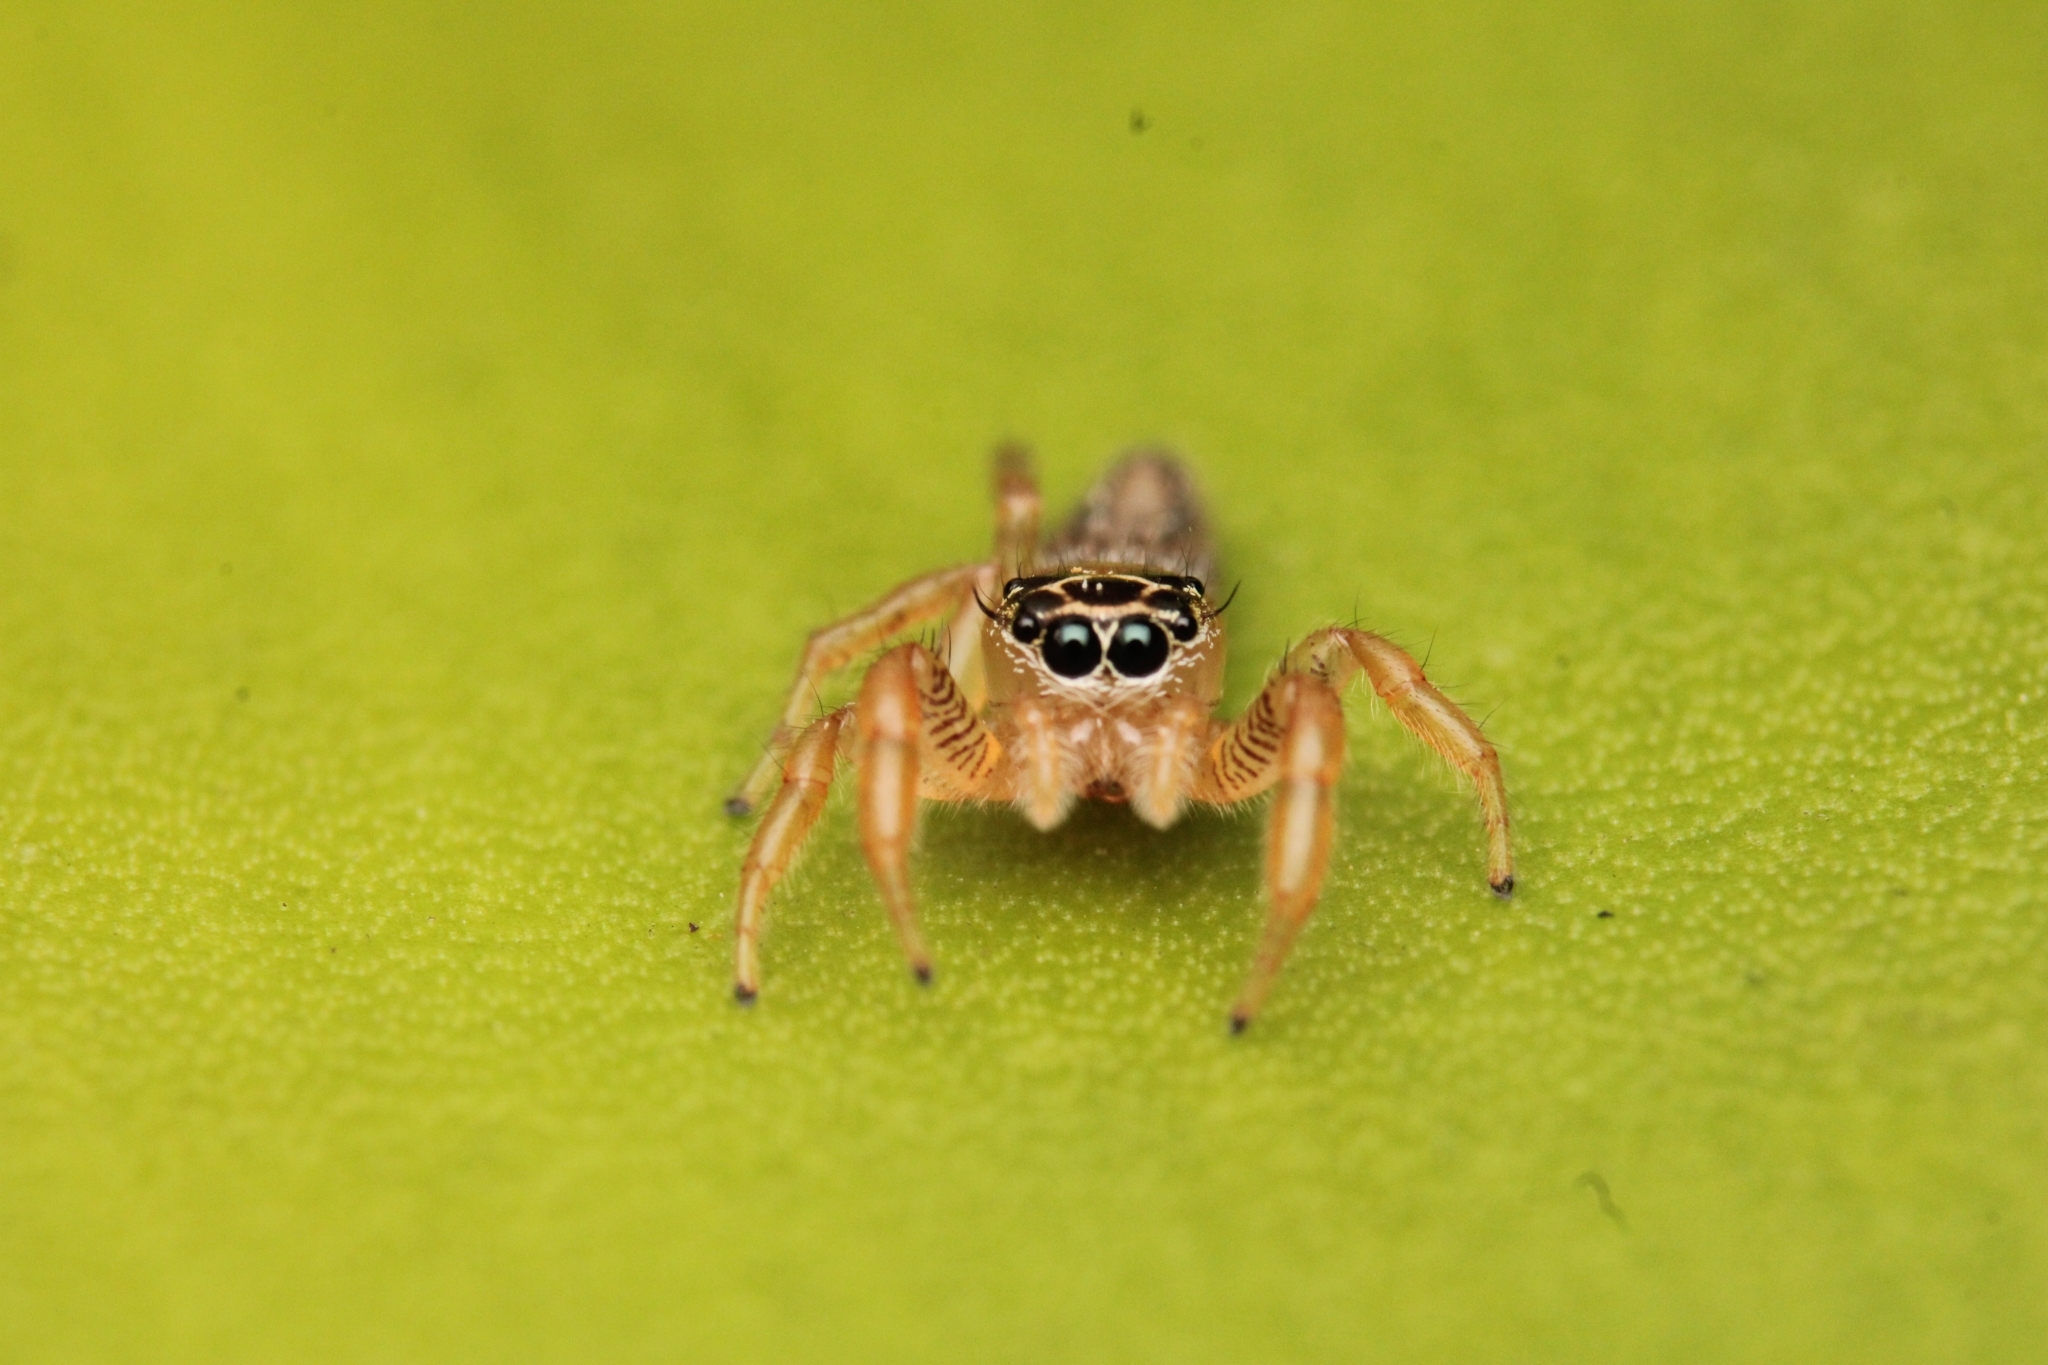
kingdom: Animalia
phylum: Arthropoda
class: Arachnida
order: Araneae
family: Salticidae
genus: Thyene
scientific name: Thyene mutica
